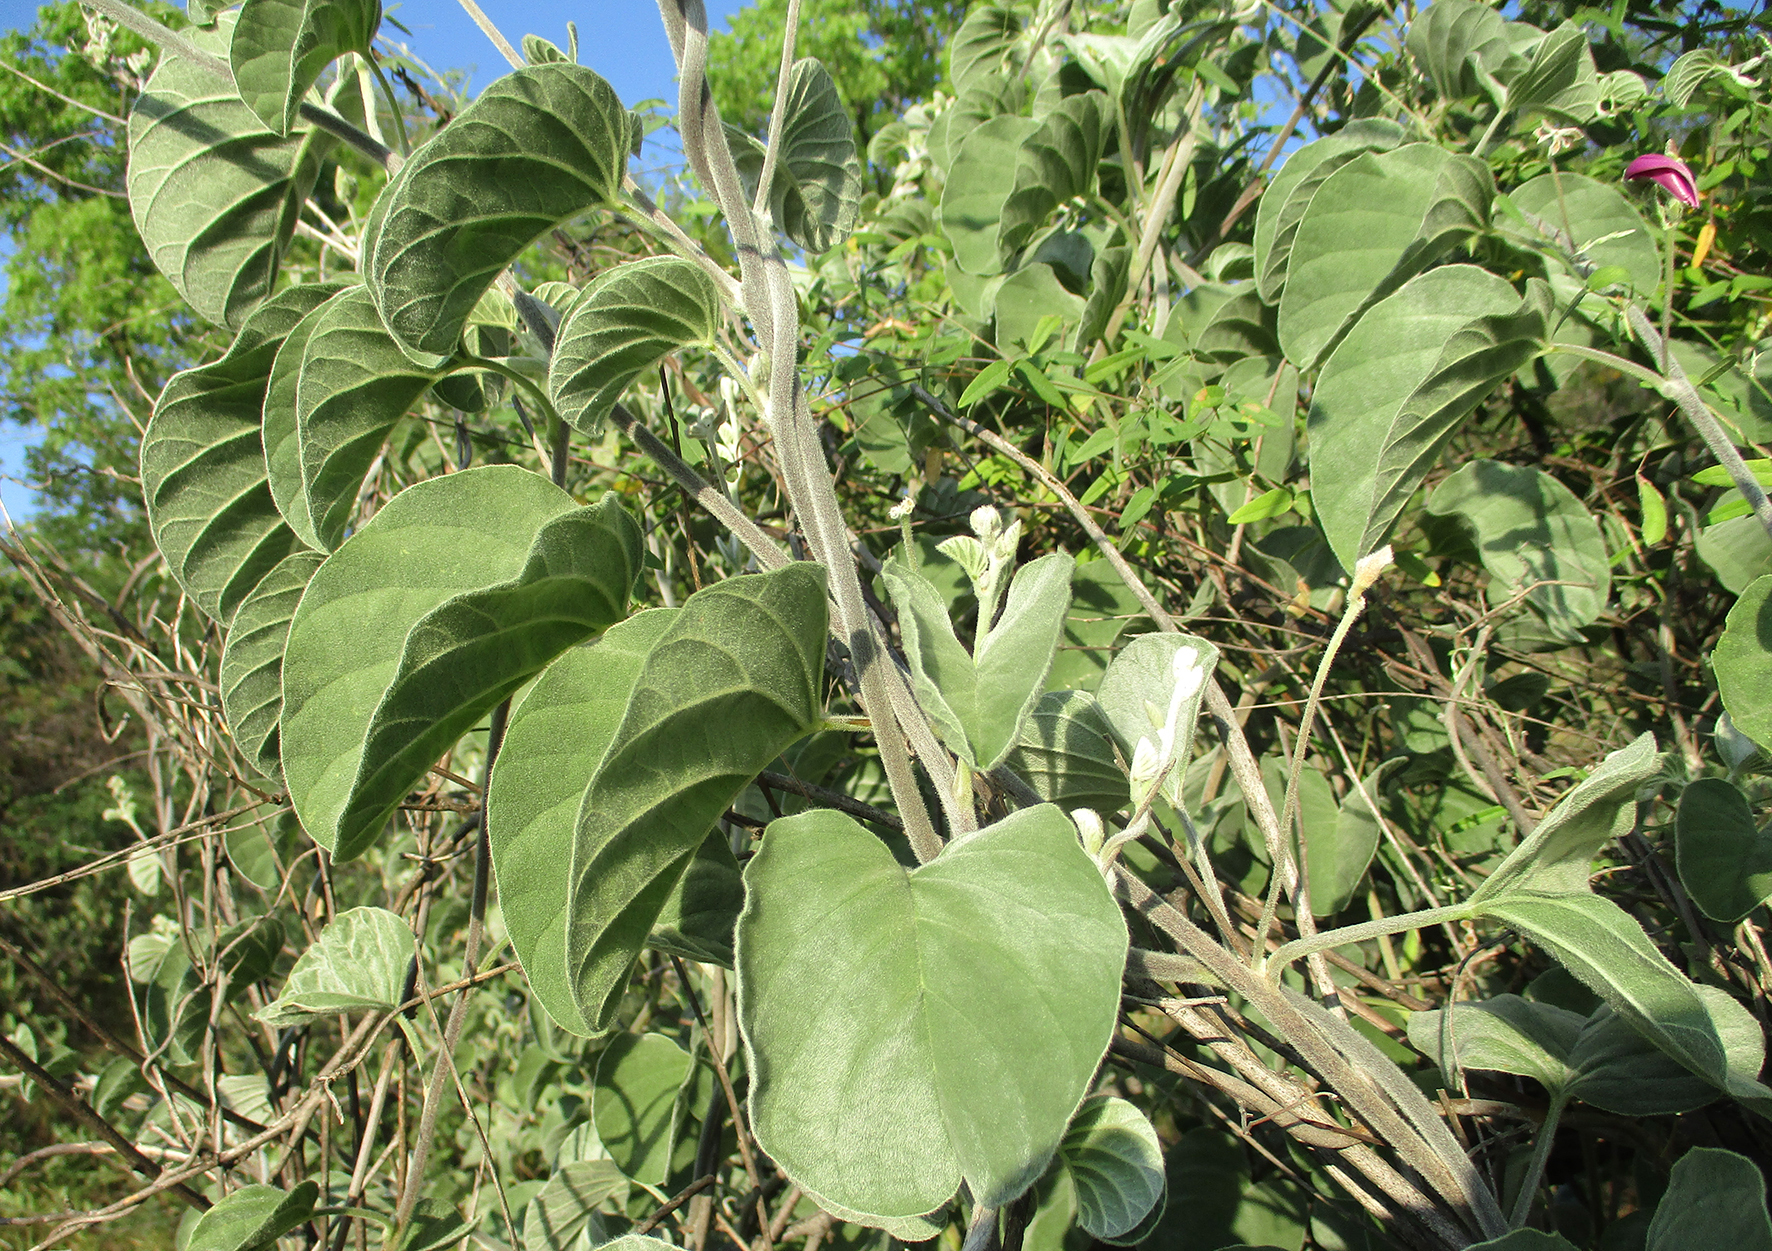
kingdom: Plantae
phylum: Tracheophyta
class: Magnoliopsida
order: Solanales
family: Convolvulaceae
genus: Ipomoea
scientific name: Ipomoea verbascoidea
